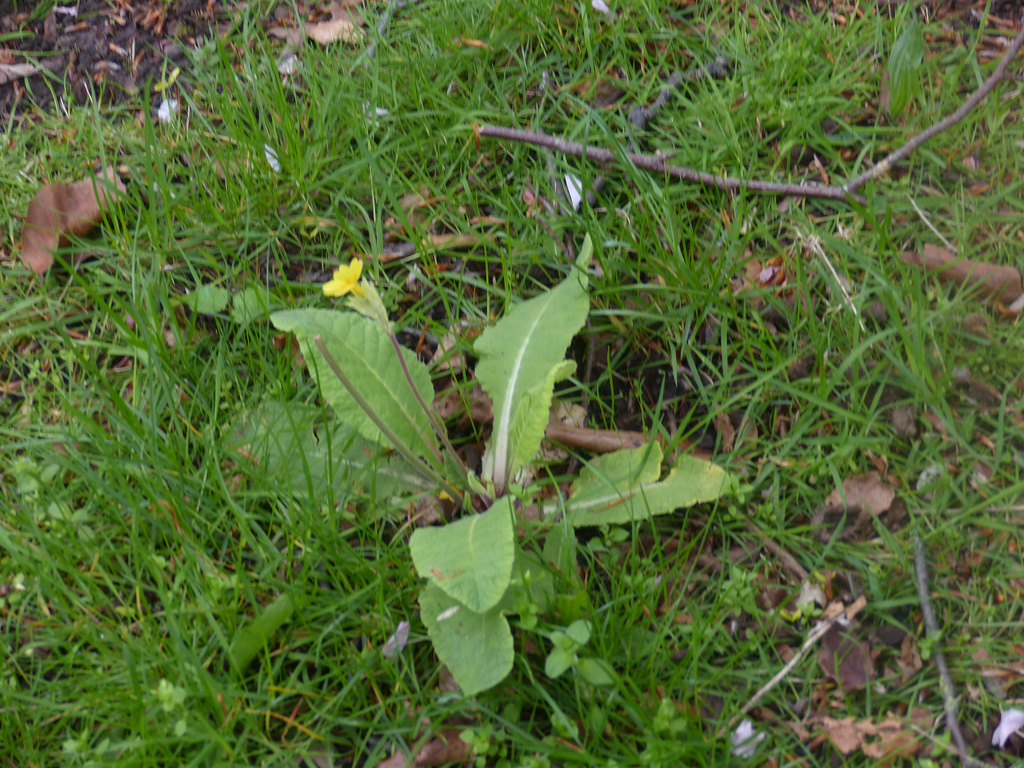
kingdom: Plantae
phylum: Tracheophyta
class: Magnoliopsida
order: Ericales
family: Primulaceae
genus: Primula
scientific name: Primula veris
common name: Cowslip
